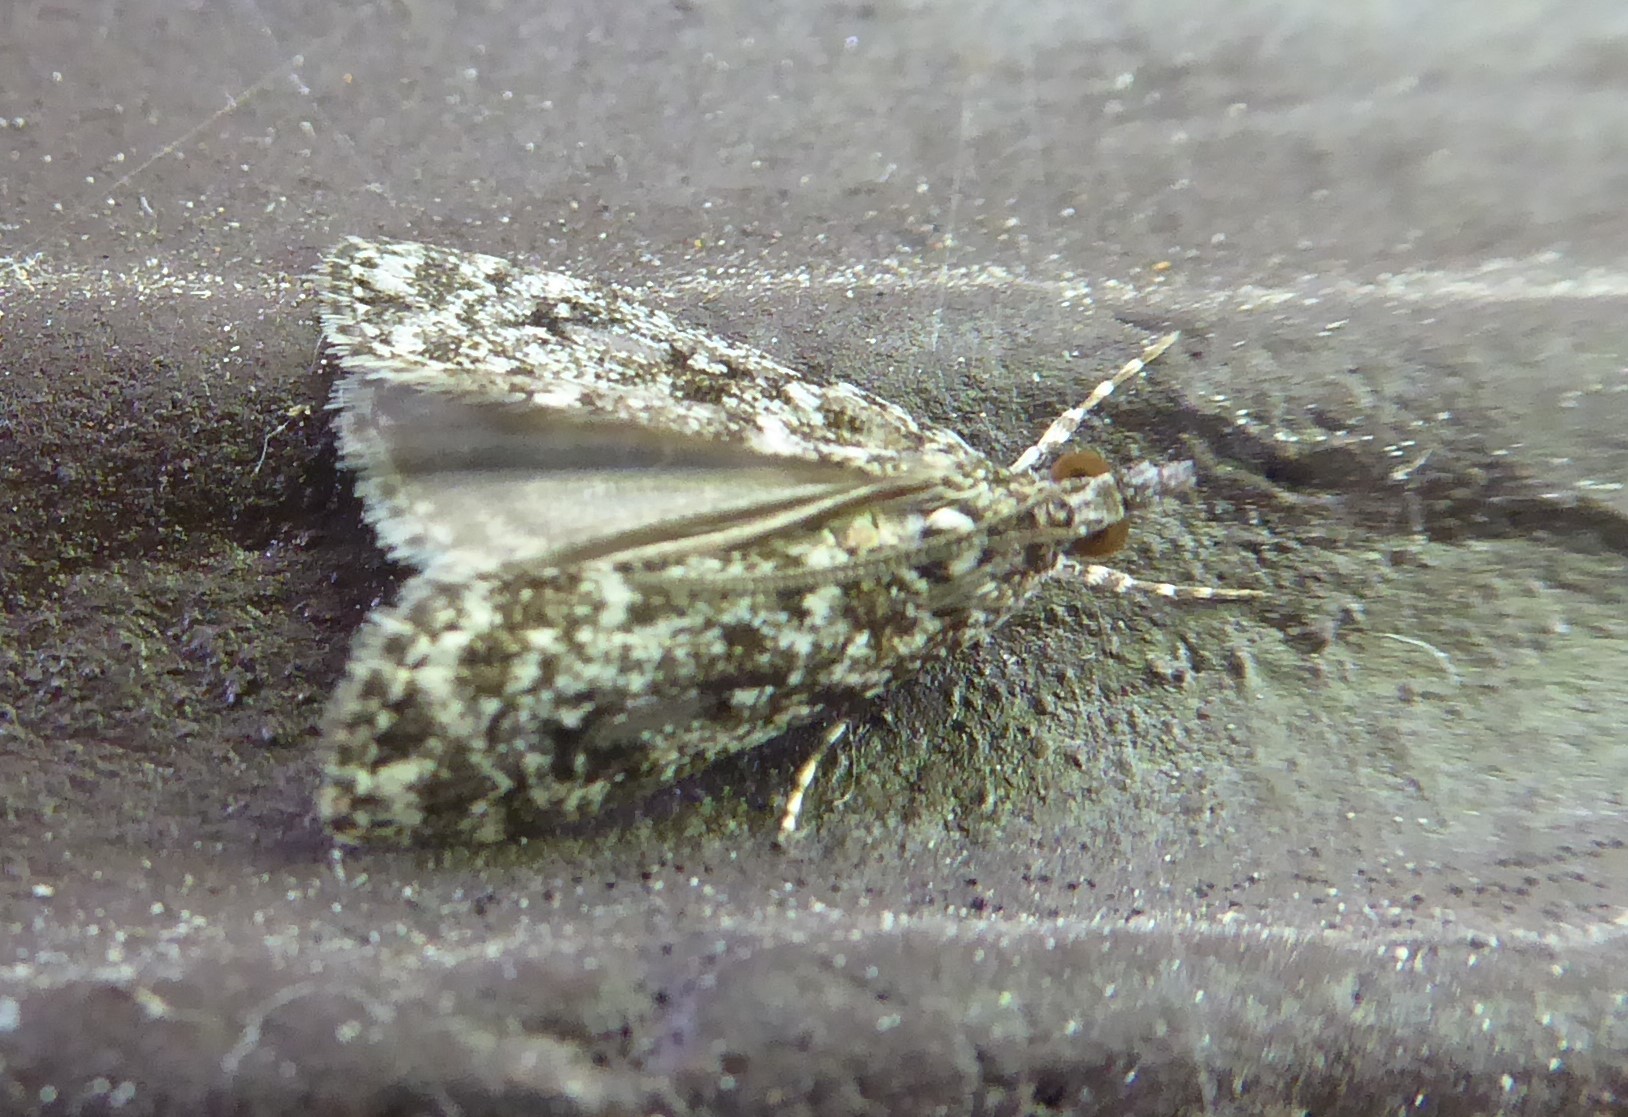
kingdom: Animalia
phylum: Arthropoda
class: Insecta
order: Lepidoptera
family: Crambidae
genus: Eudonia
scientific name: Eudonia philerga
